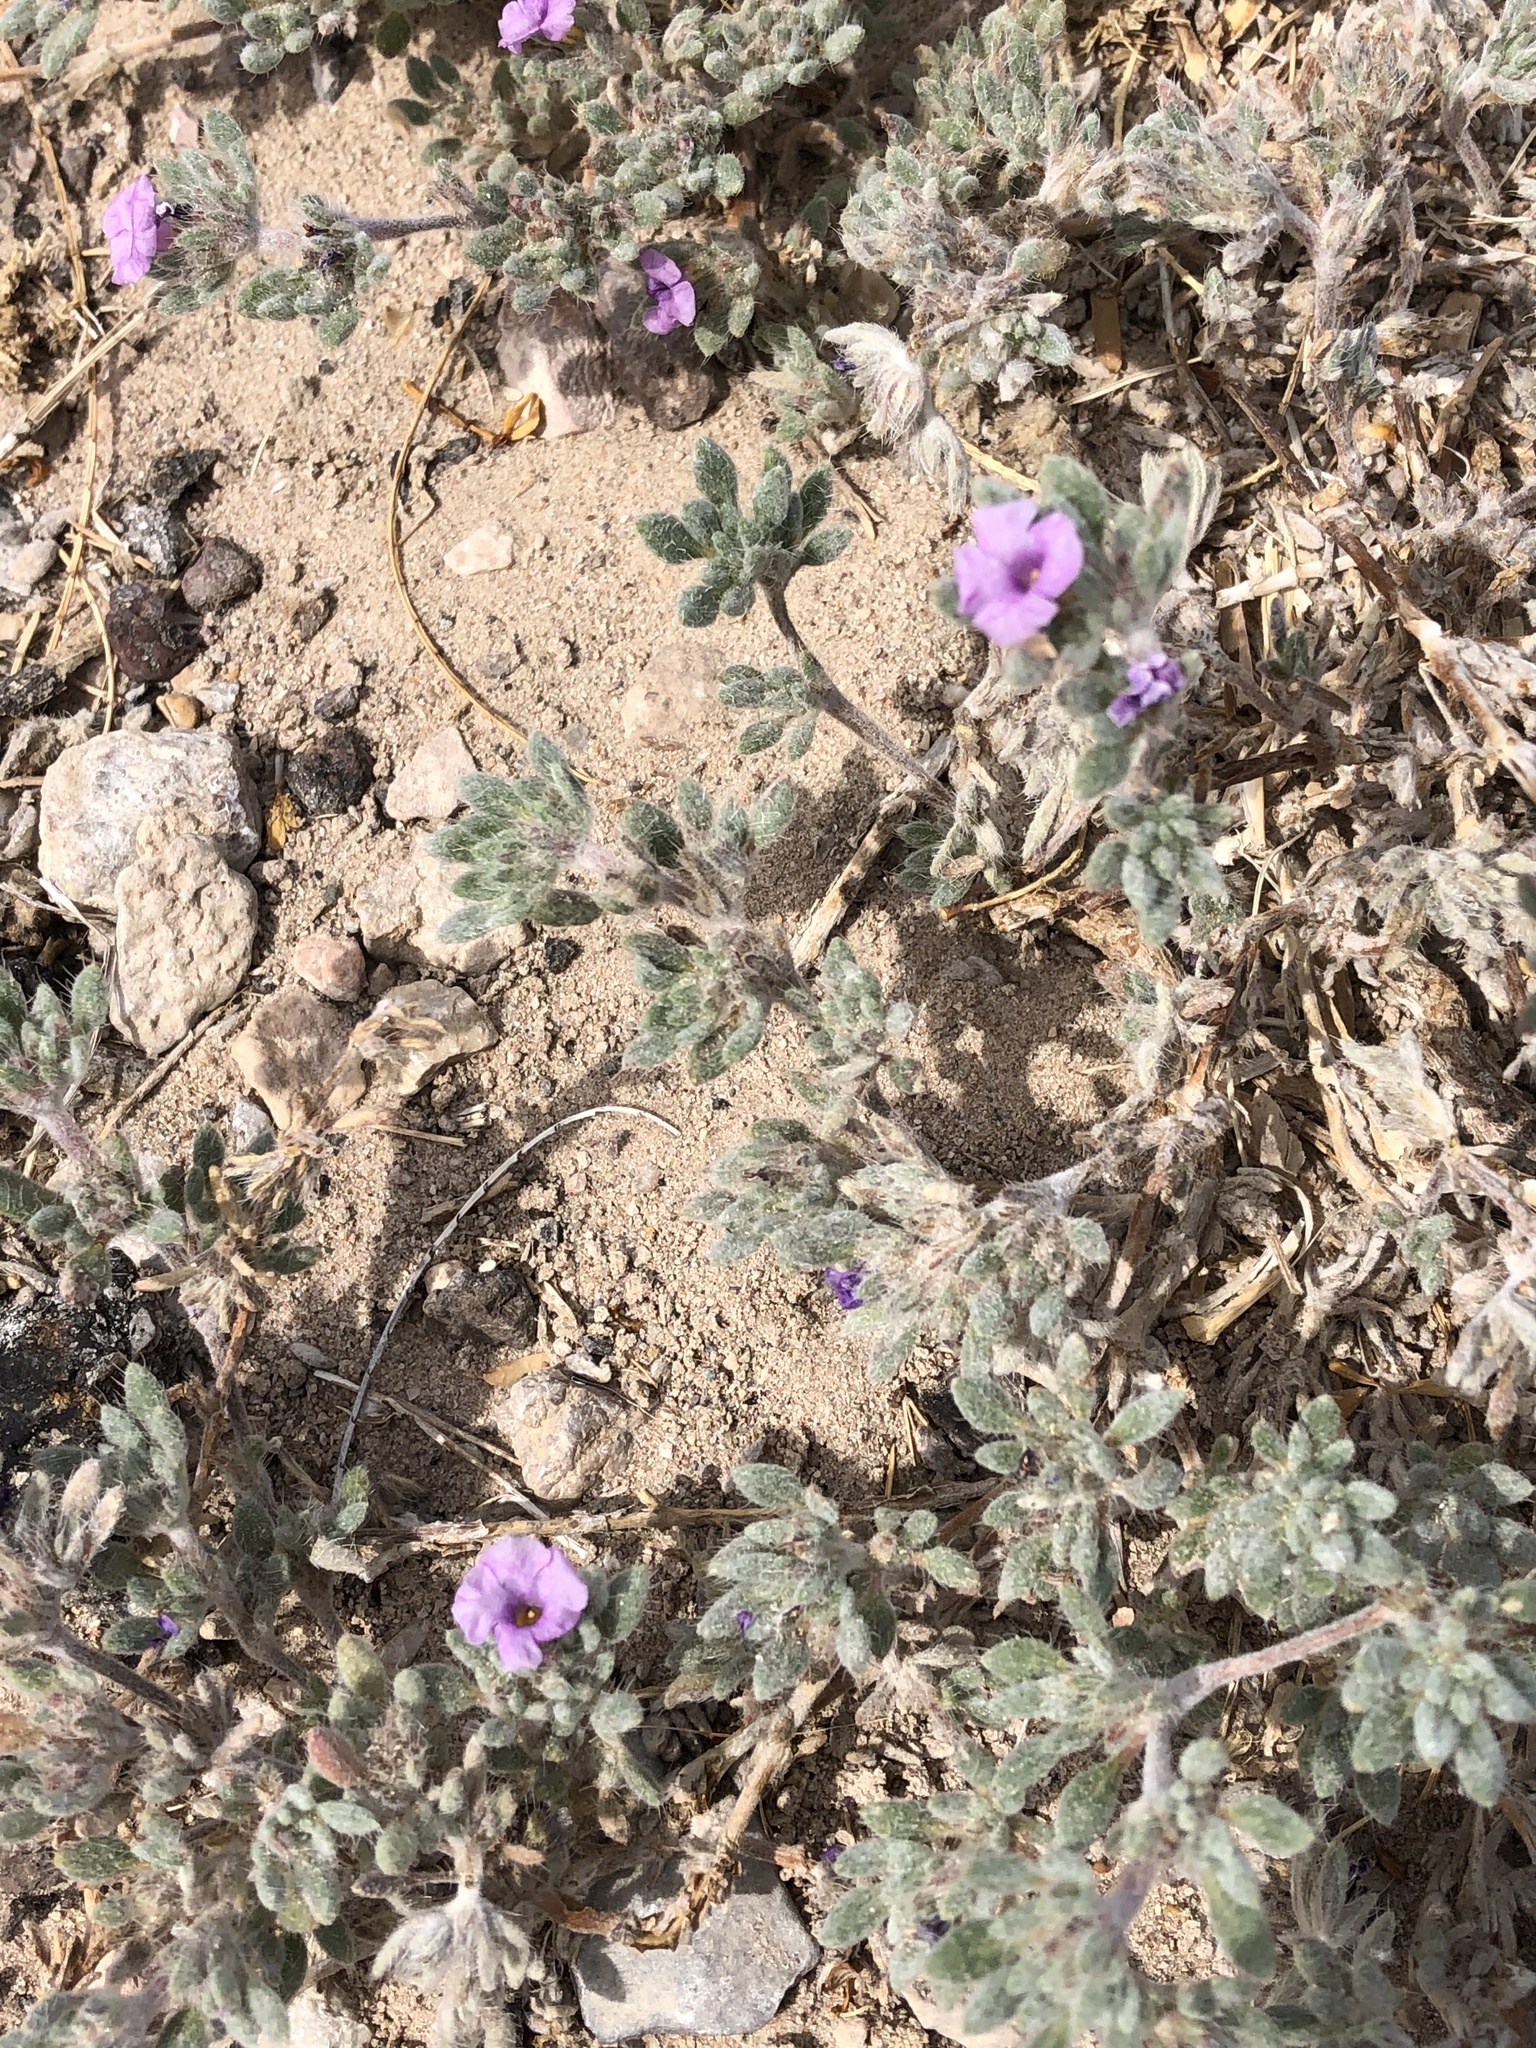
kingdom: Plantae
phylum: Tracheophyta
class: Magnoliopsida
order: Boraginales
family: Namaceae
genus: Nama
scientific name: Nama hispida
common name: Bristly nama
